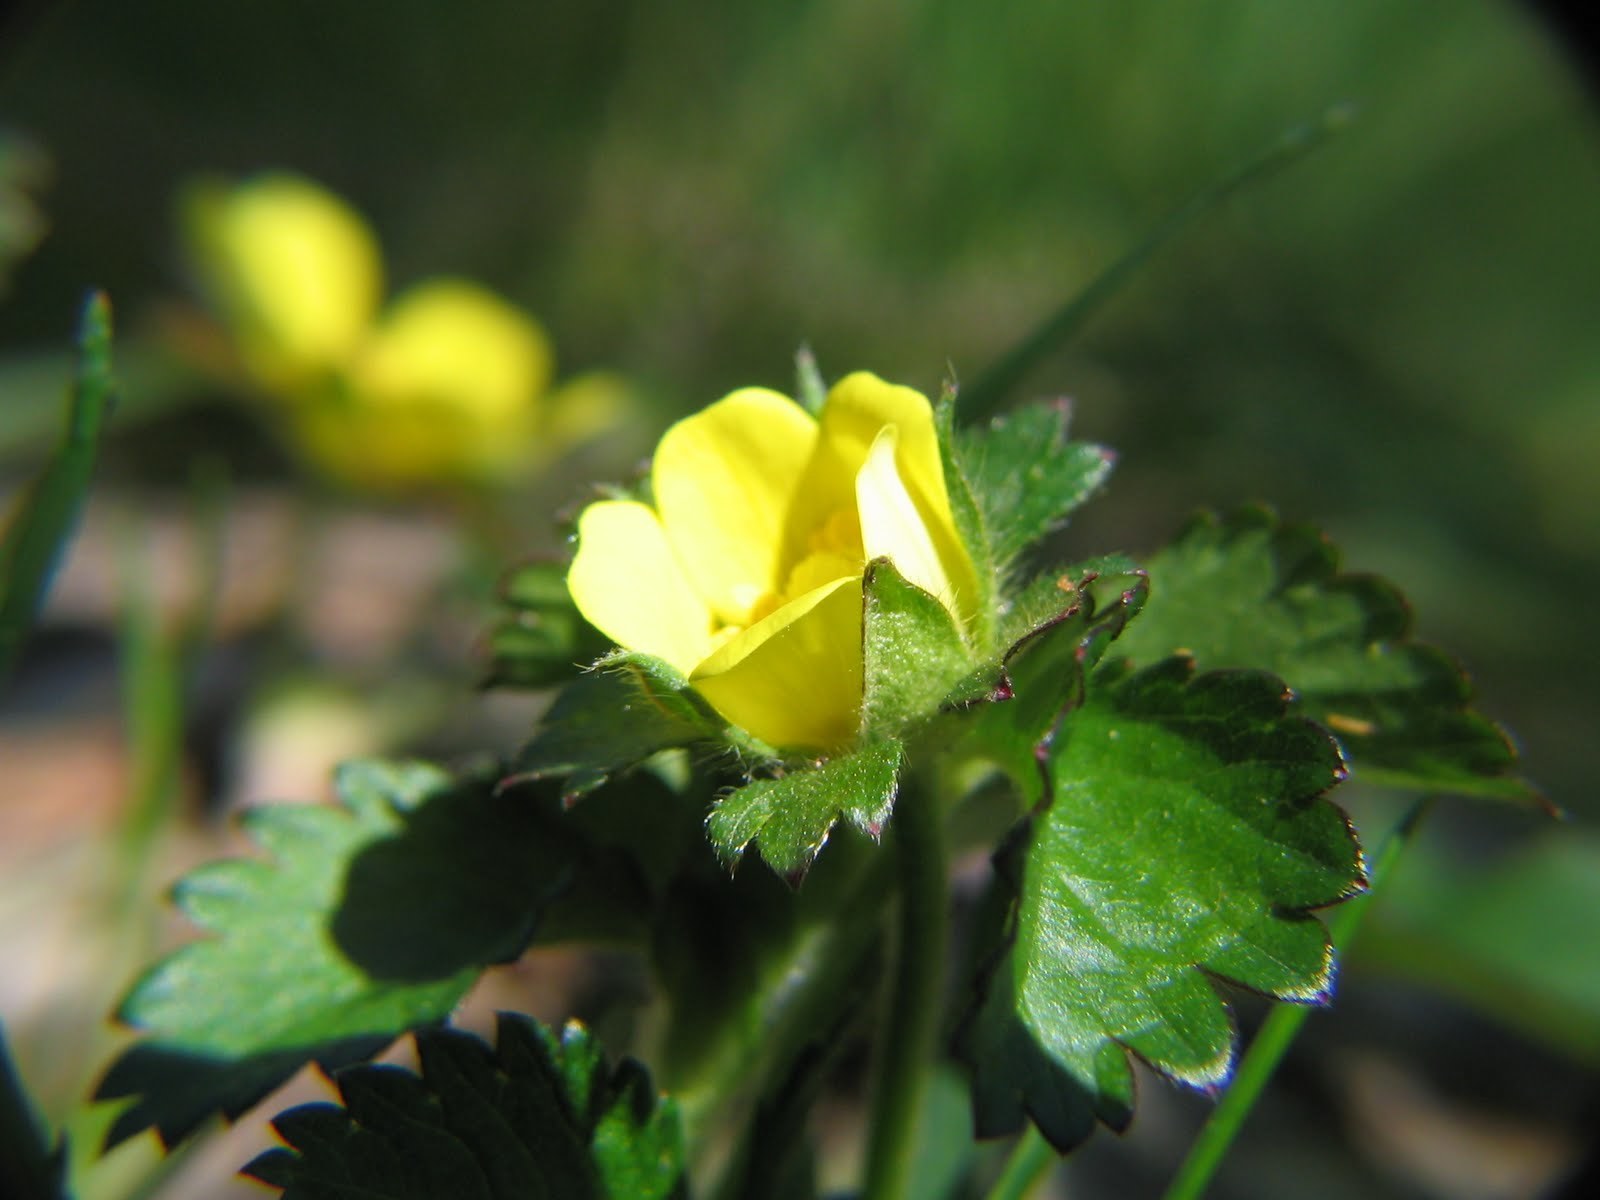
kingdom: Plantae
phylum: Tracheophyta
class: Magnoliopsida
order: Rosales
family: Rosaceae
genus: Potentilla
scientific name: Potentilla indica
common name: Yellow-flowered strawberry
